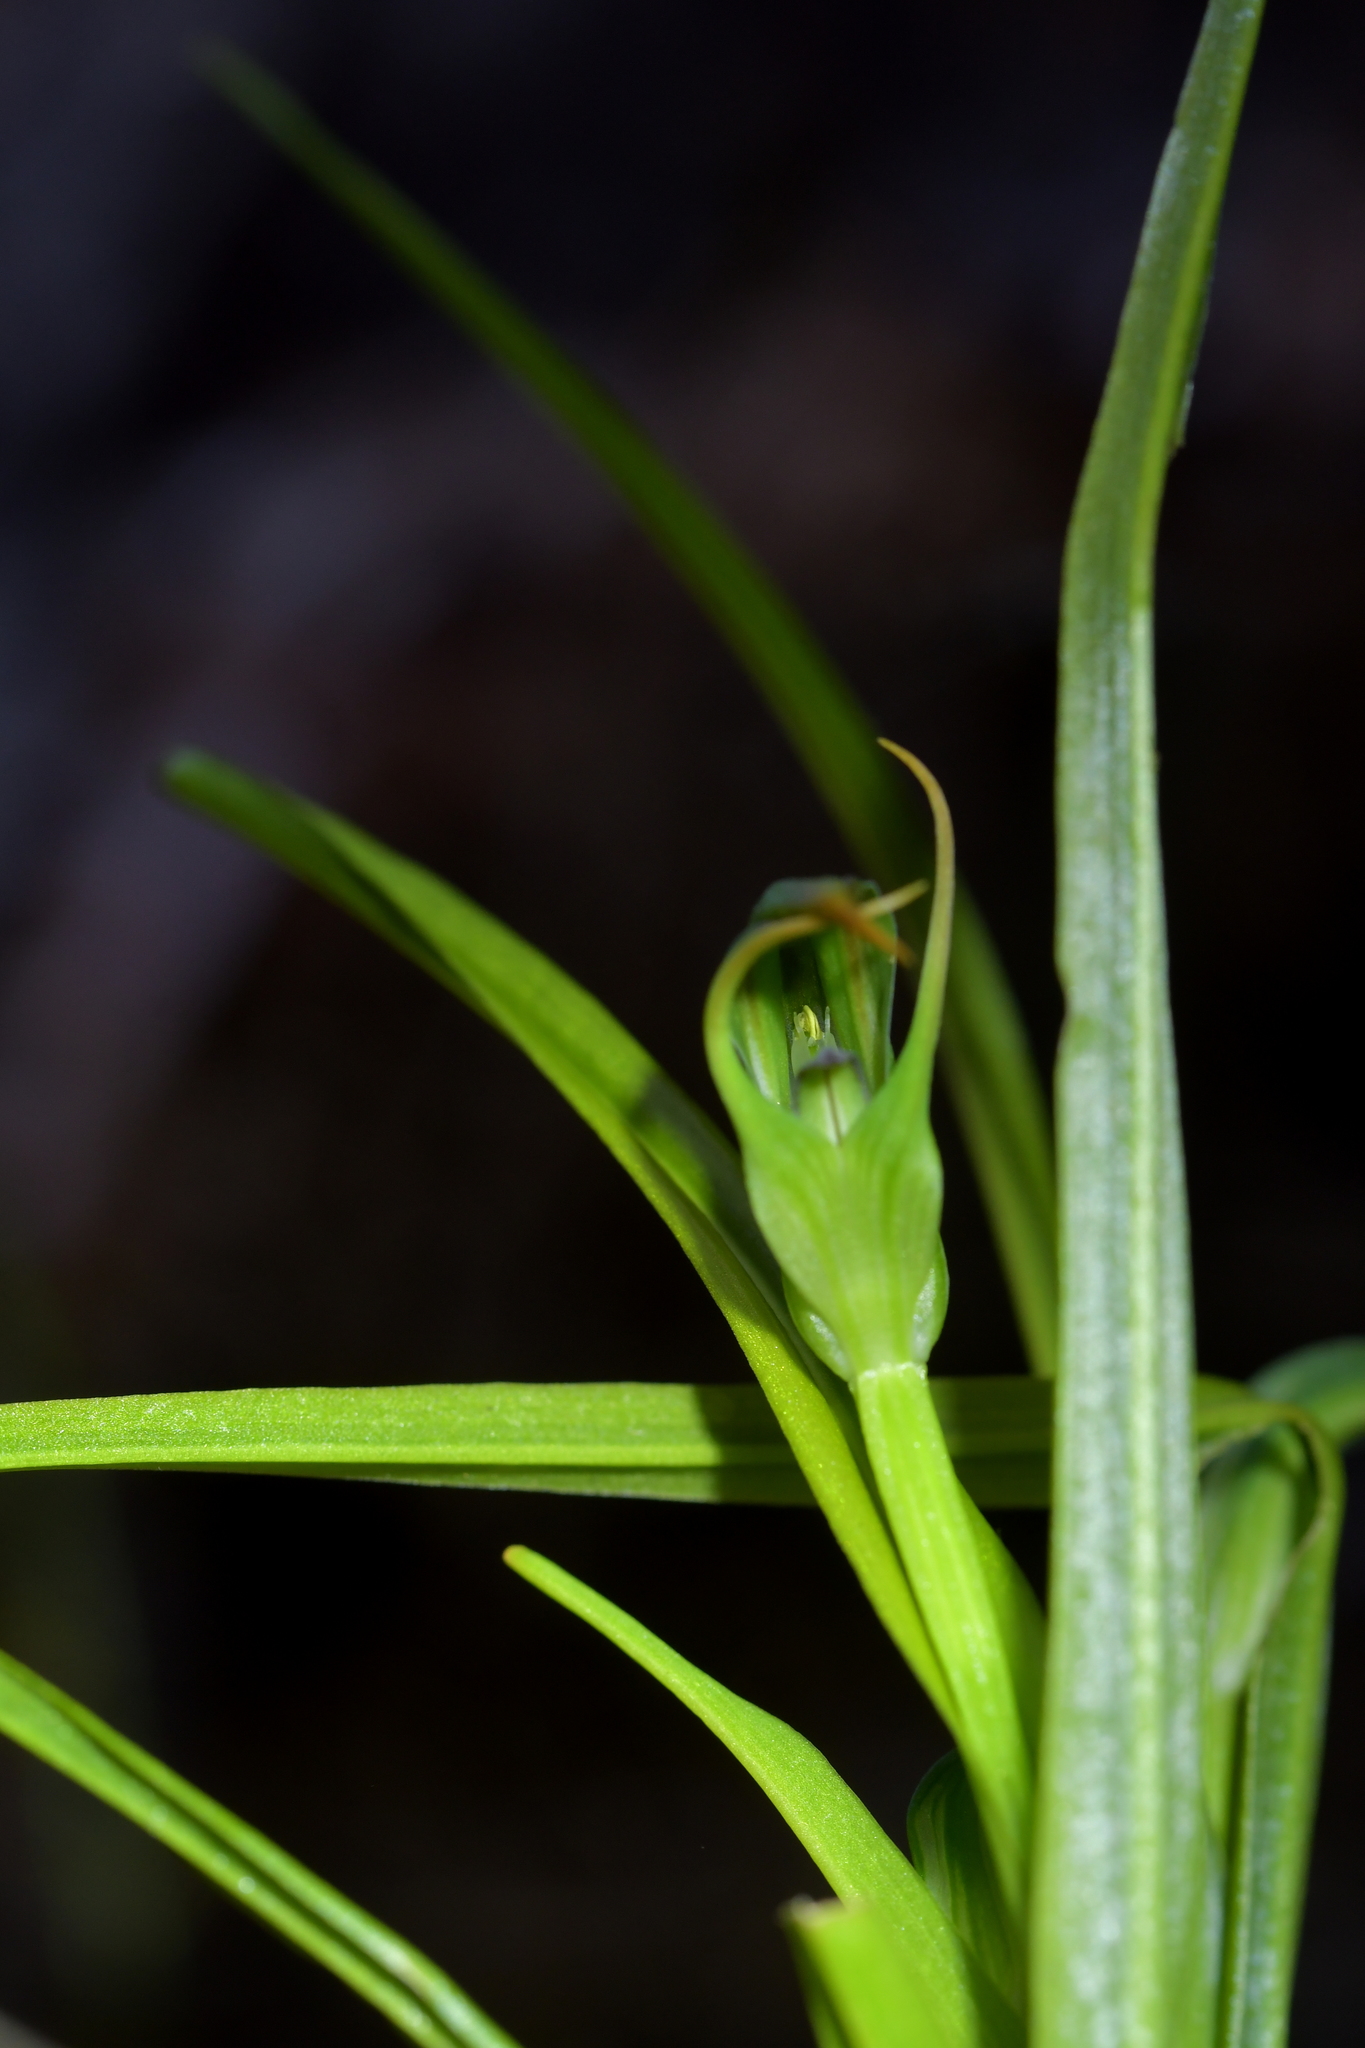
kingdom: Plantae
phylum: Tracheophyta
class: Liliopsida
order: Asparagales
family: Orchidaceae
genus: Pterostylis
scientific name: Pterostylis graminea
